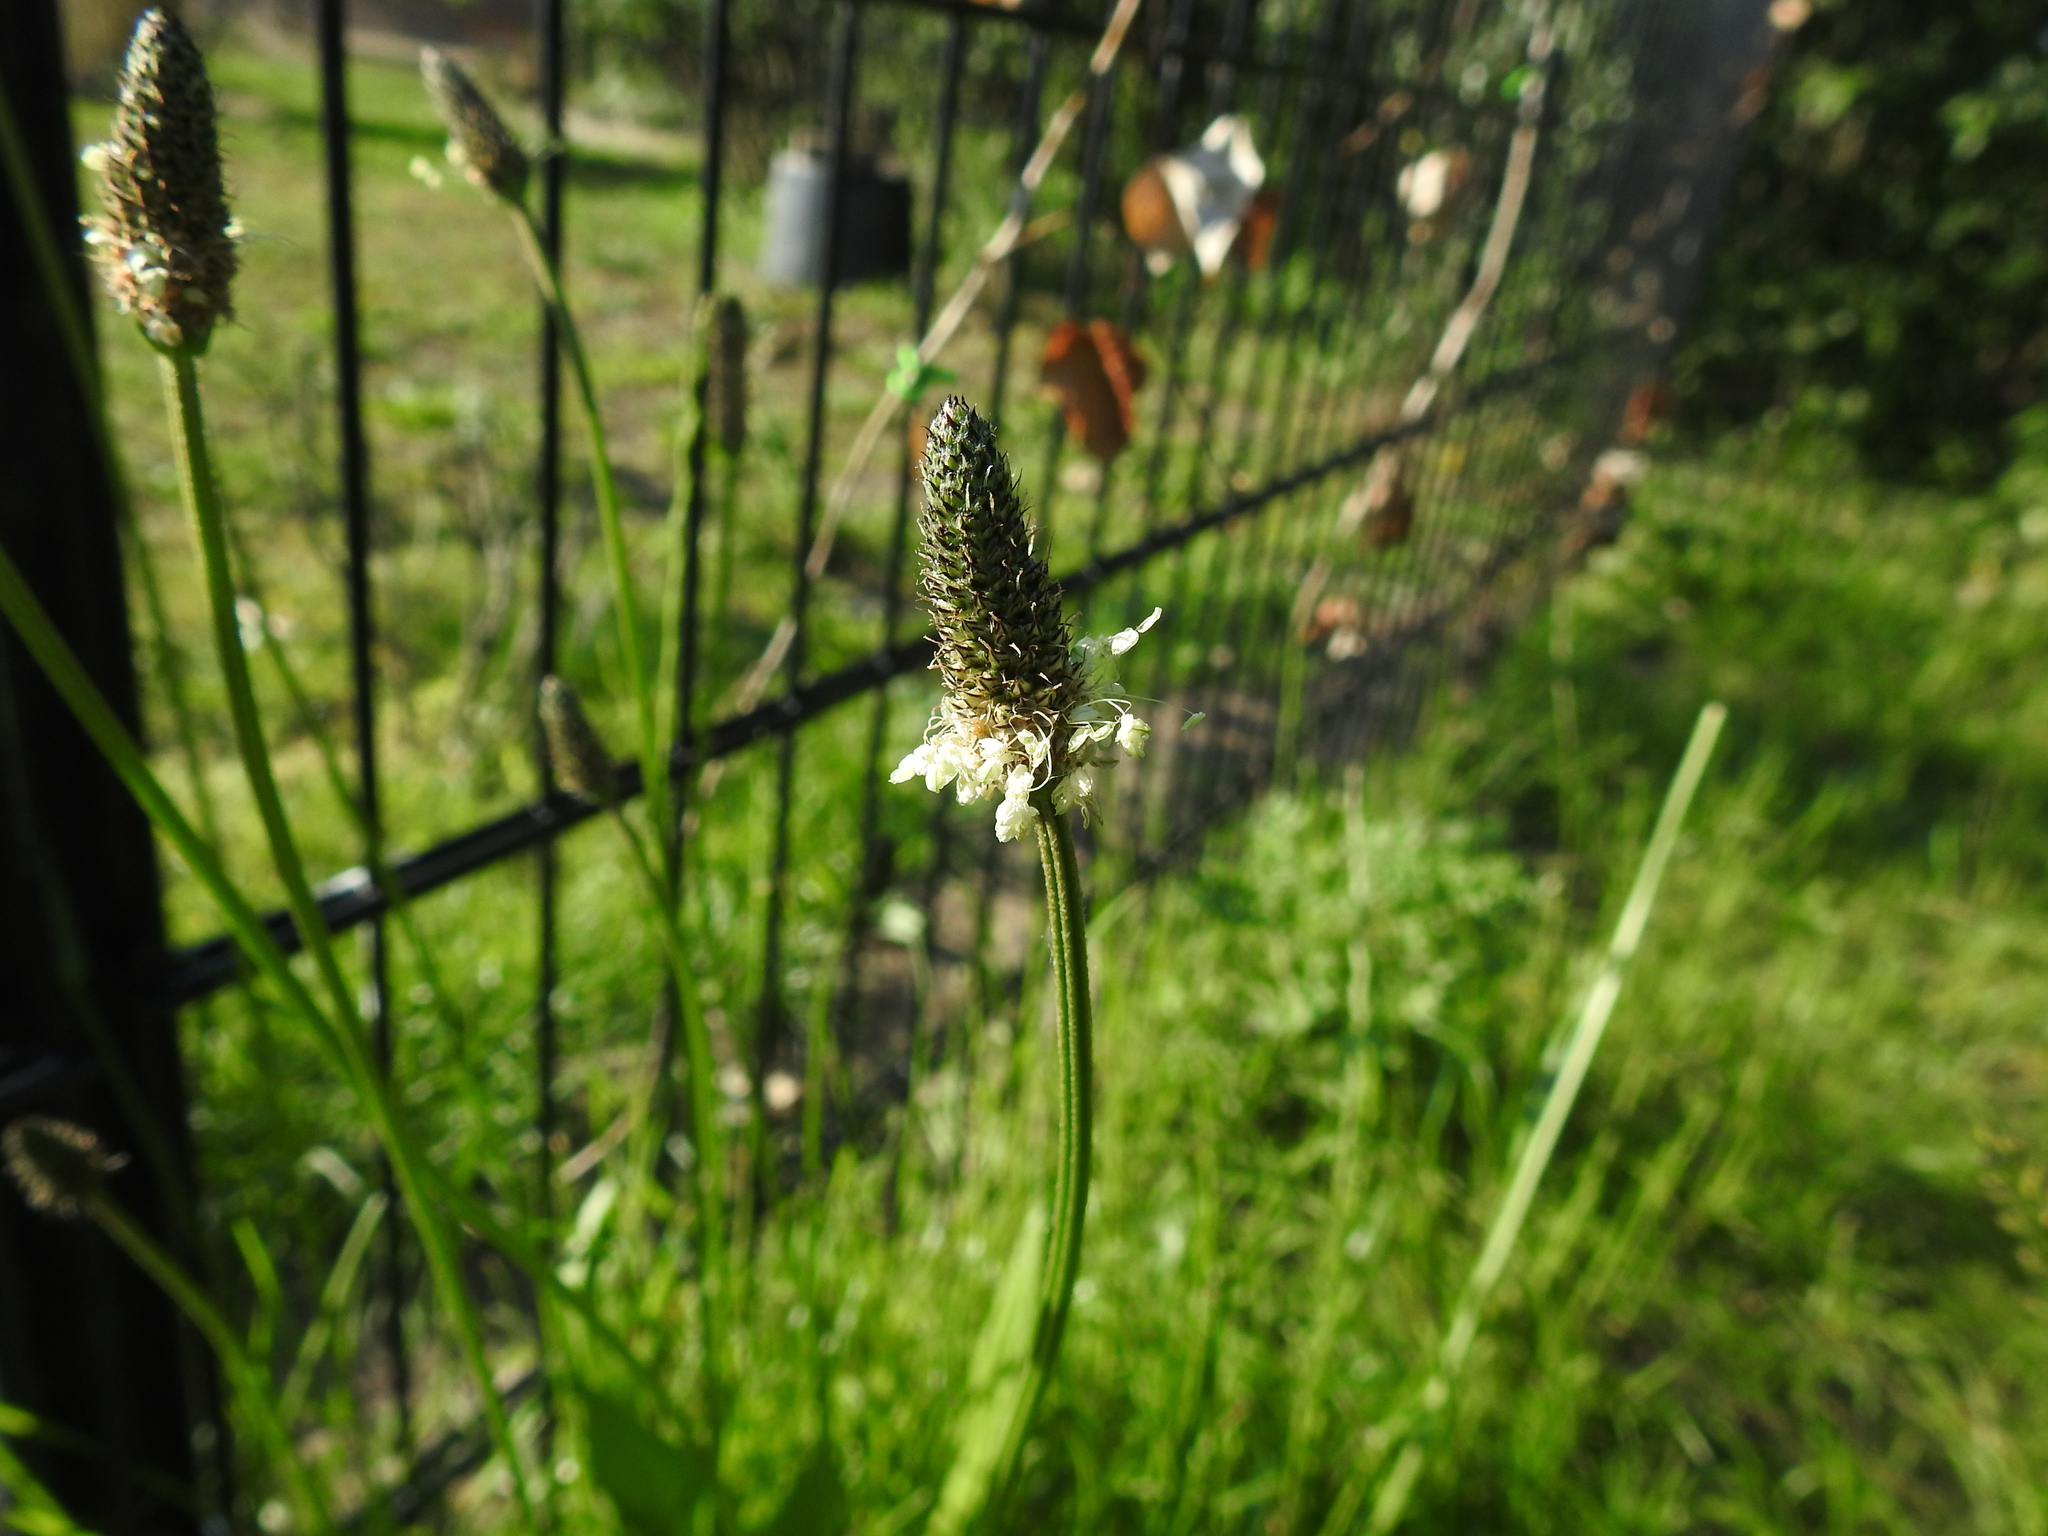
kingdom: Plantae
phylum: Tracheophyta
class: Magnoliopsida
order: Lamiales
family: Plantaginaceae
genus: Plantago
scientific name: Plantago lanceolata
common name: Ribwort plantain
